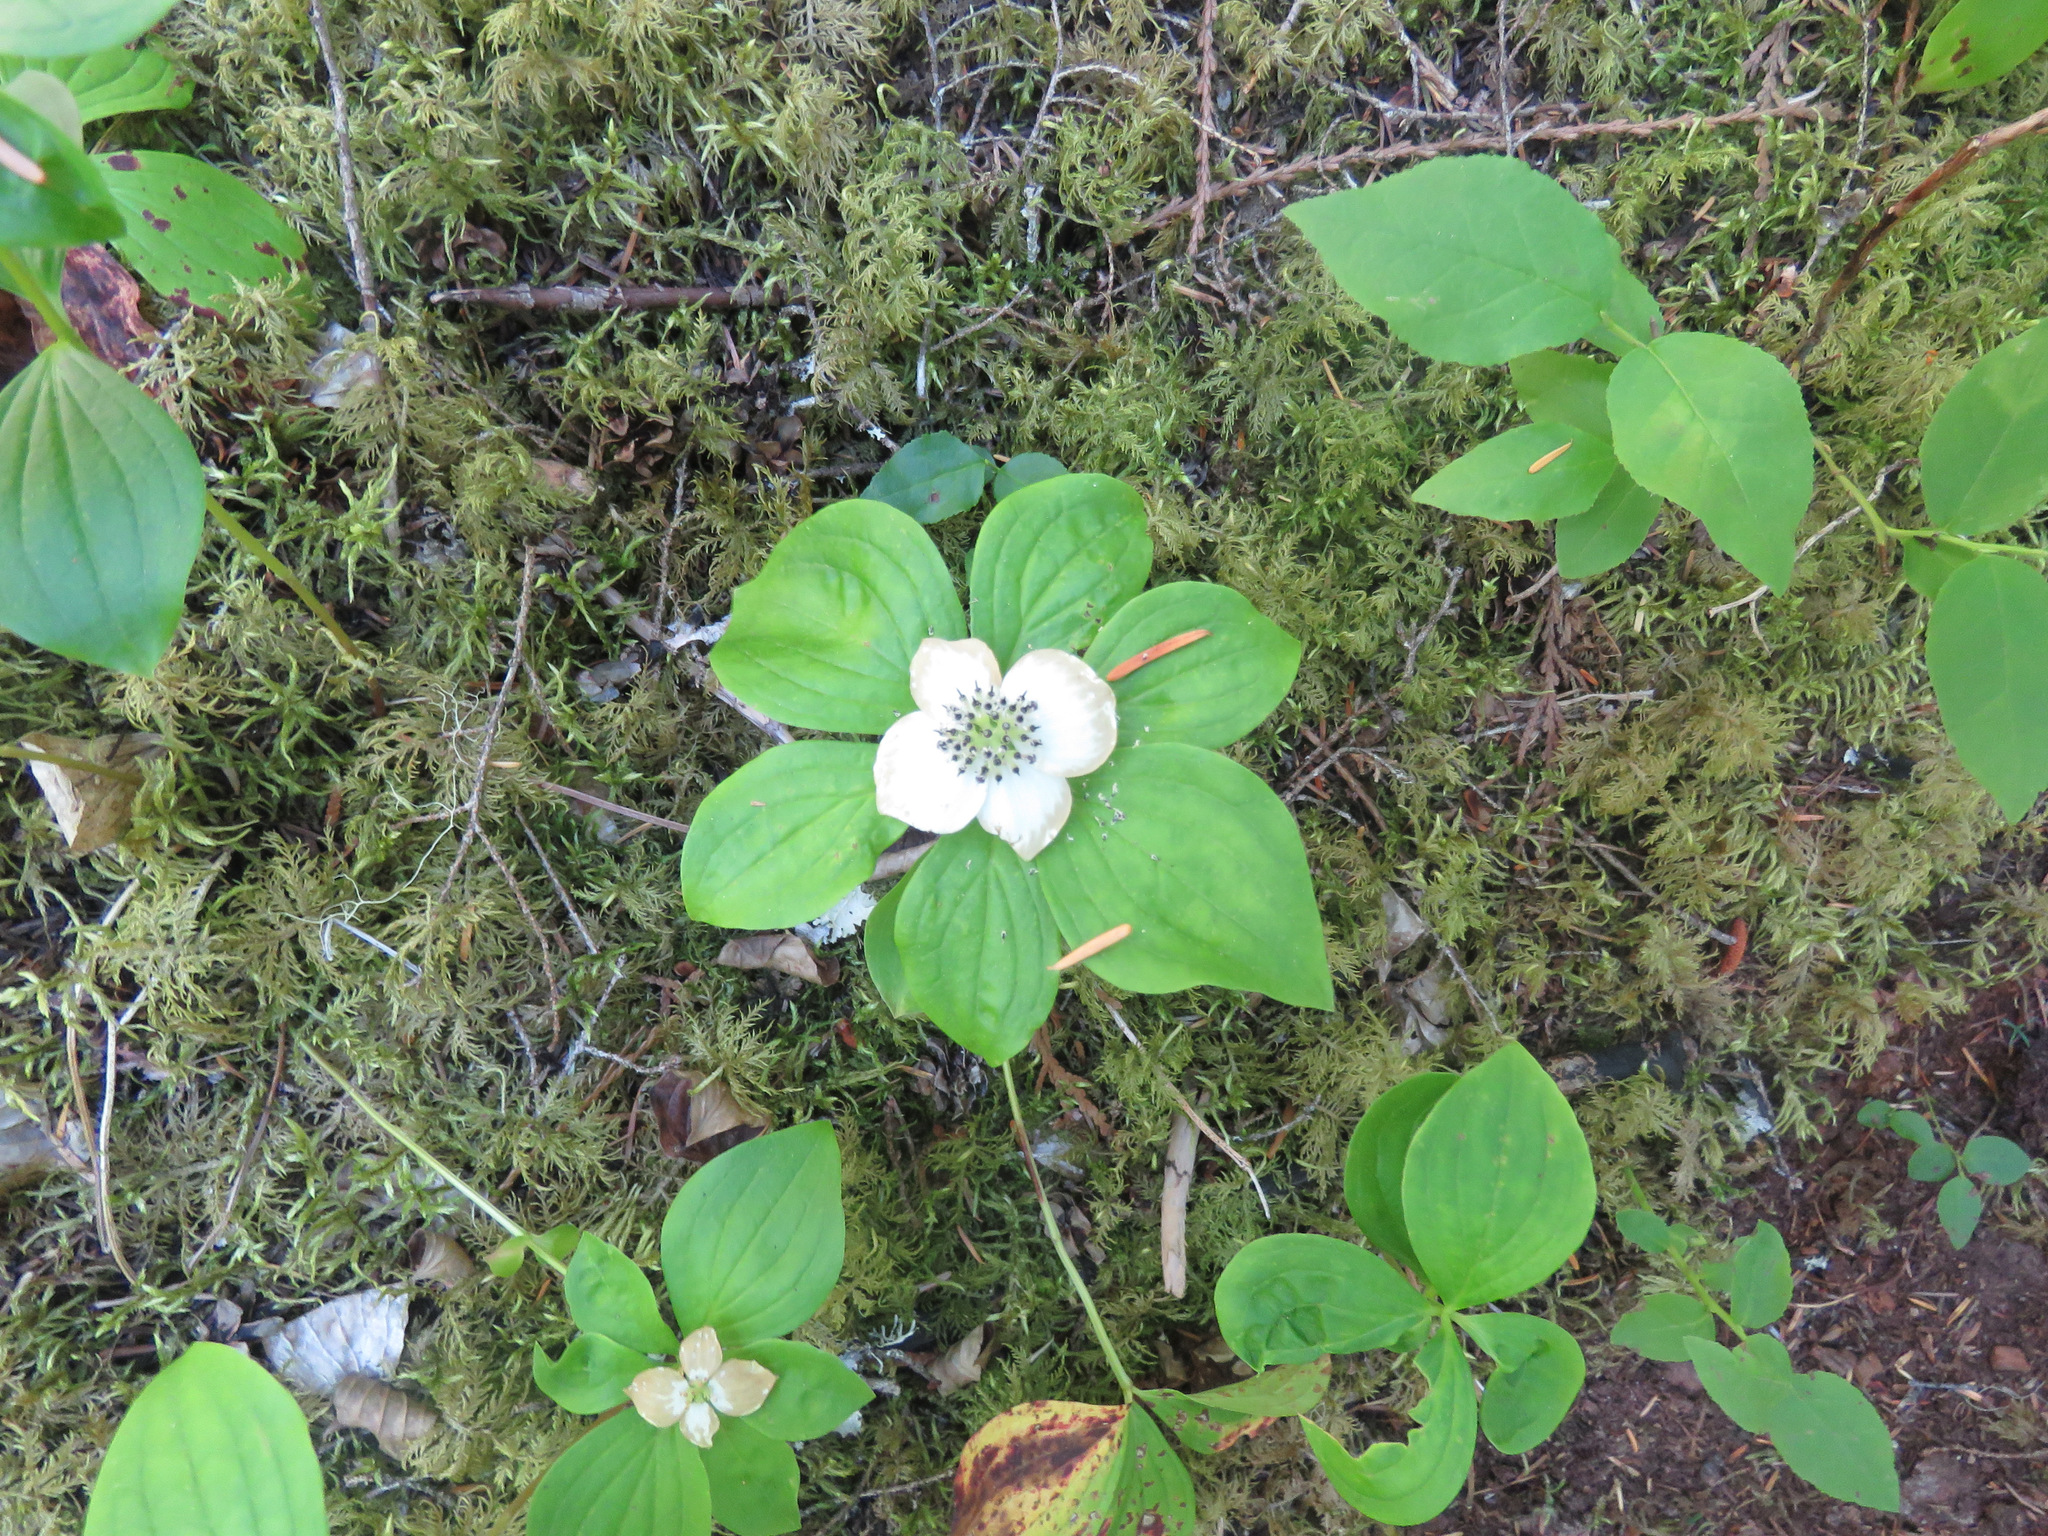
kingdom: Plantae
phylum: Tracheophyta
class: Magnoliopsida
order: Cornales
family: Cornaceae
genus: Cornus
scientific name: Cornus unalaschkensis
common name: Alaska bunchberry
